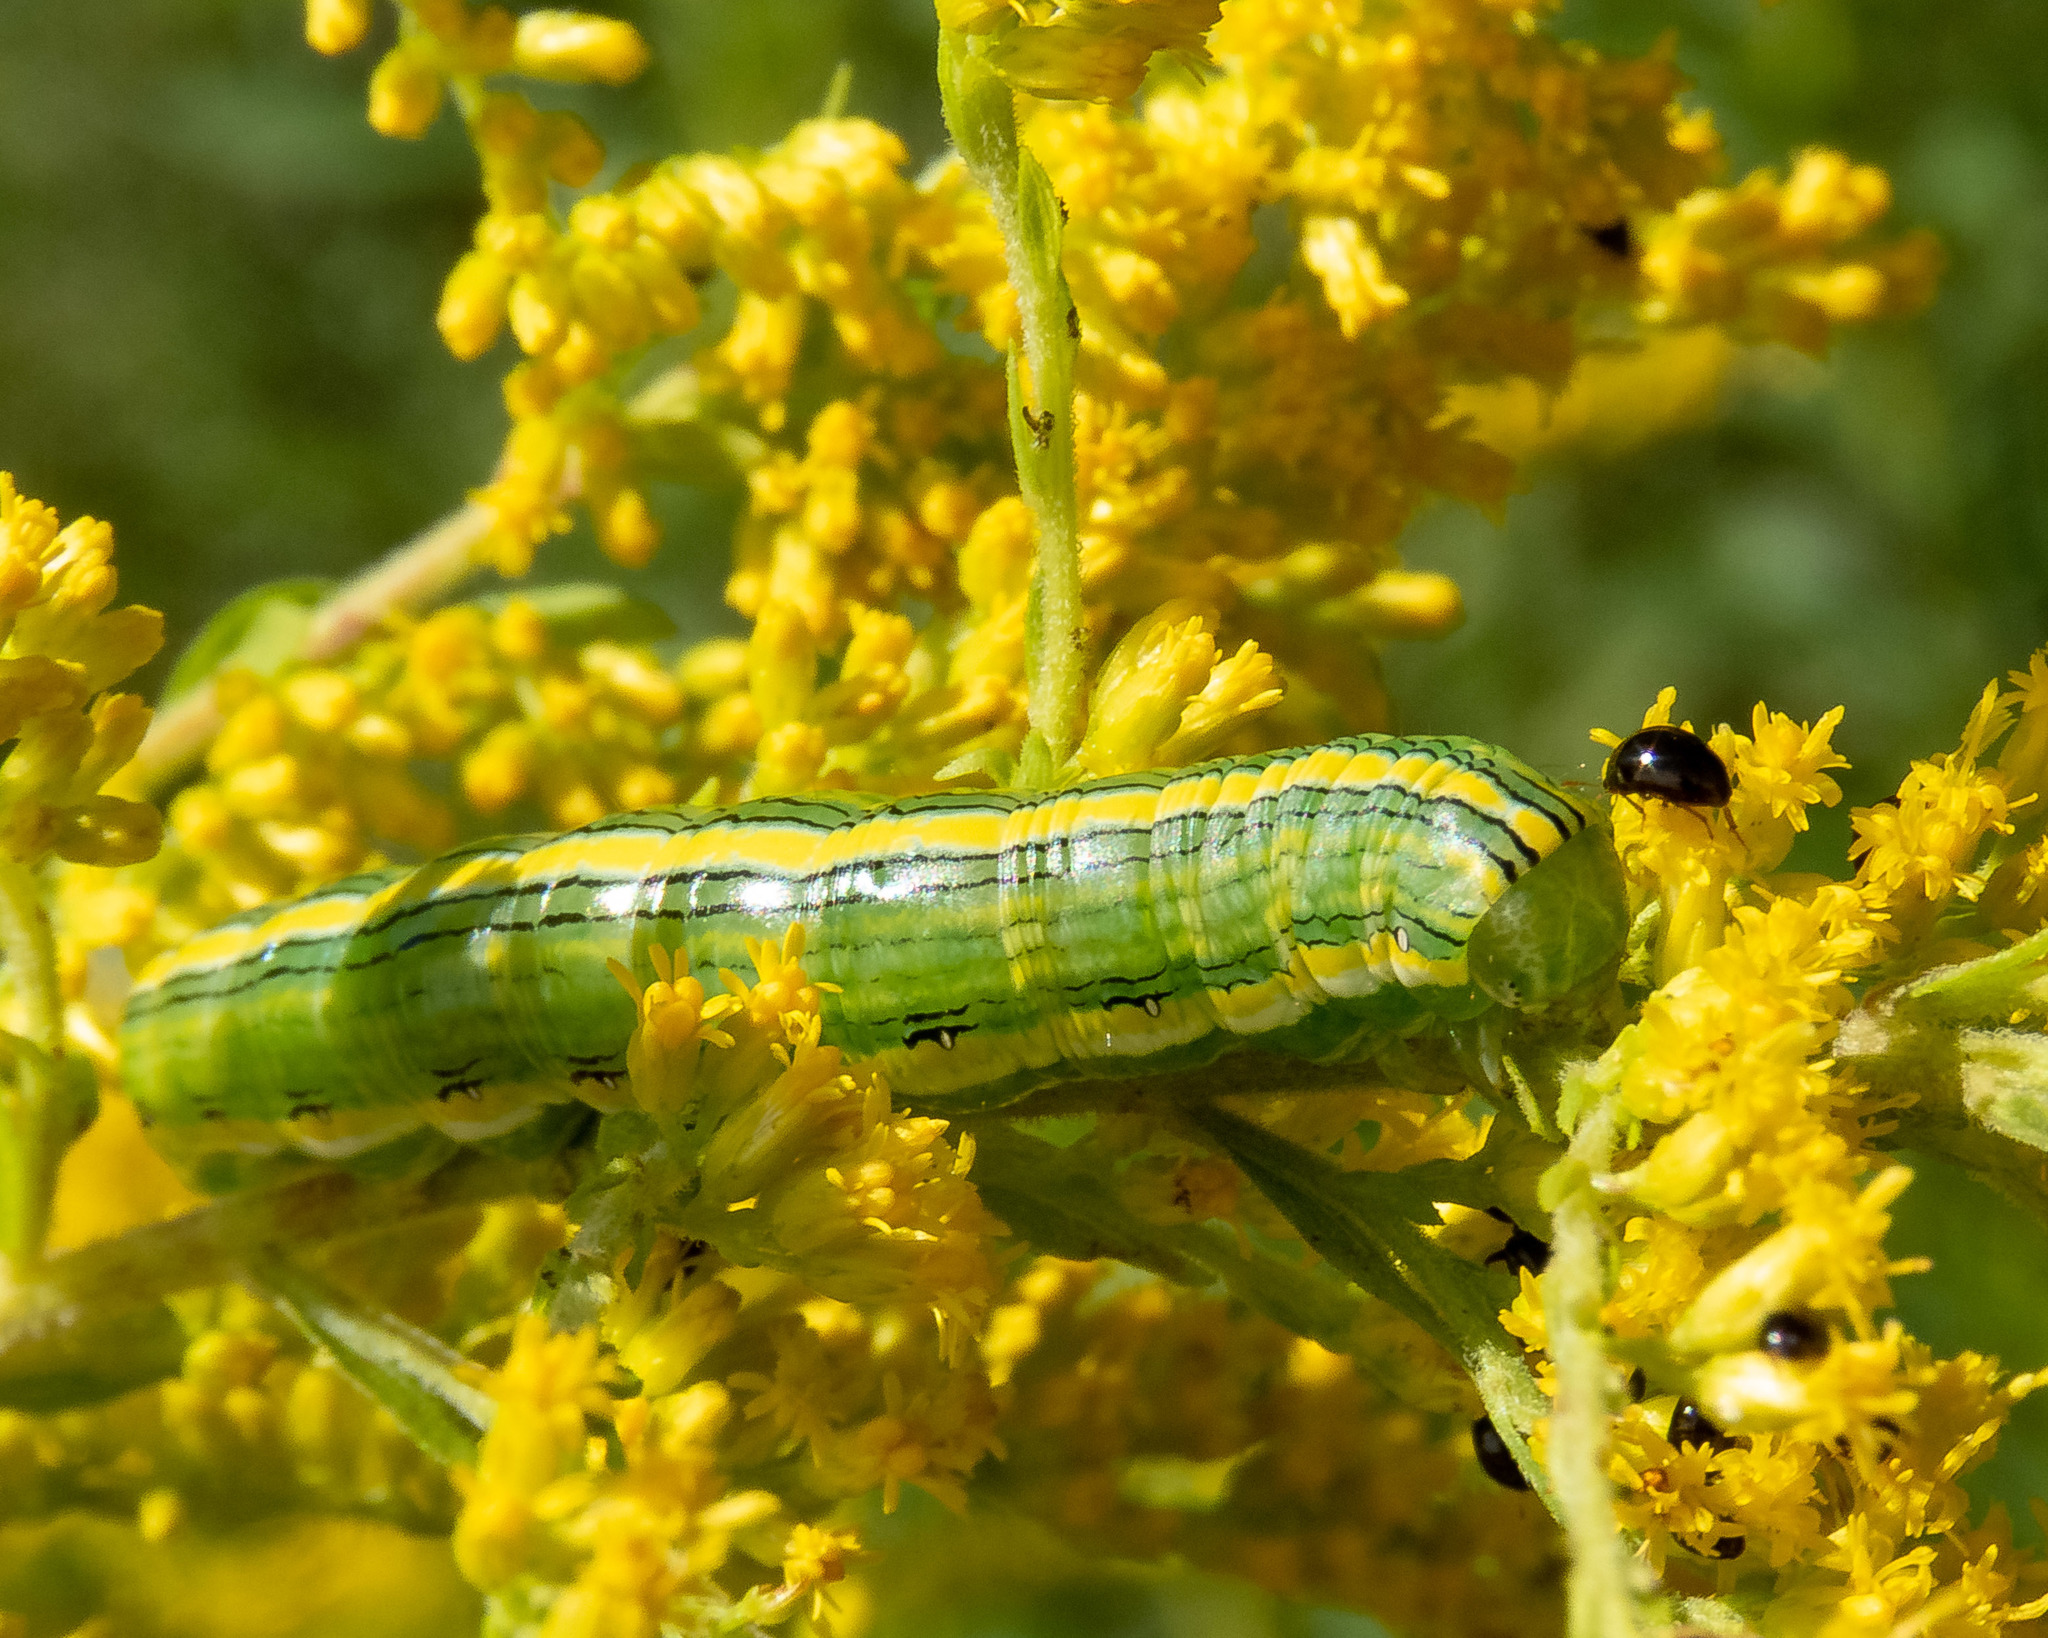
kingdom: Animalia
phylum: Arthropoda
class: Insecta
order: Lepidoptera
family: Noctuidae
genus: Cucullia
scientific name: Cucullia asteroides
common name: Asteroid moth
